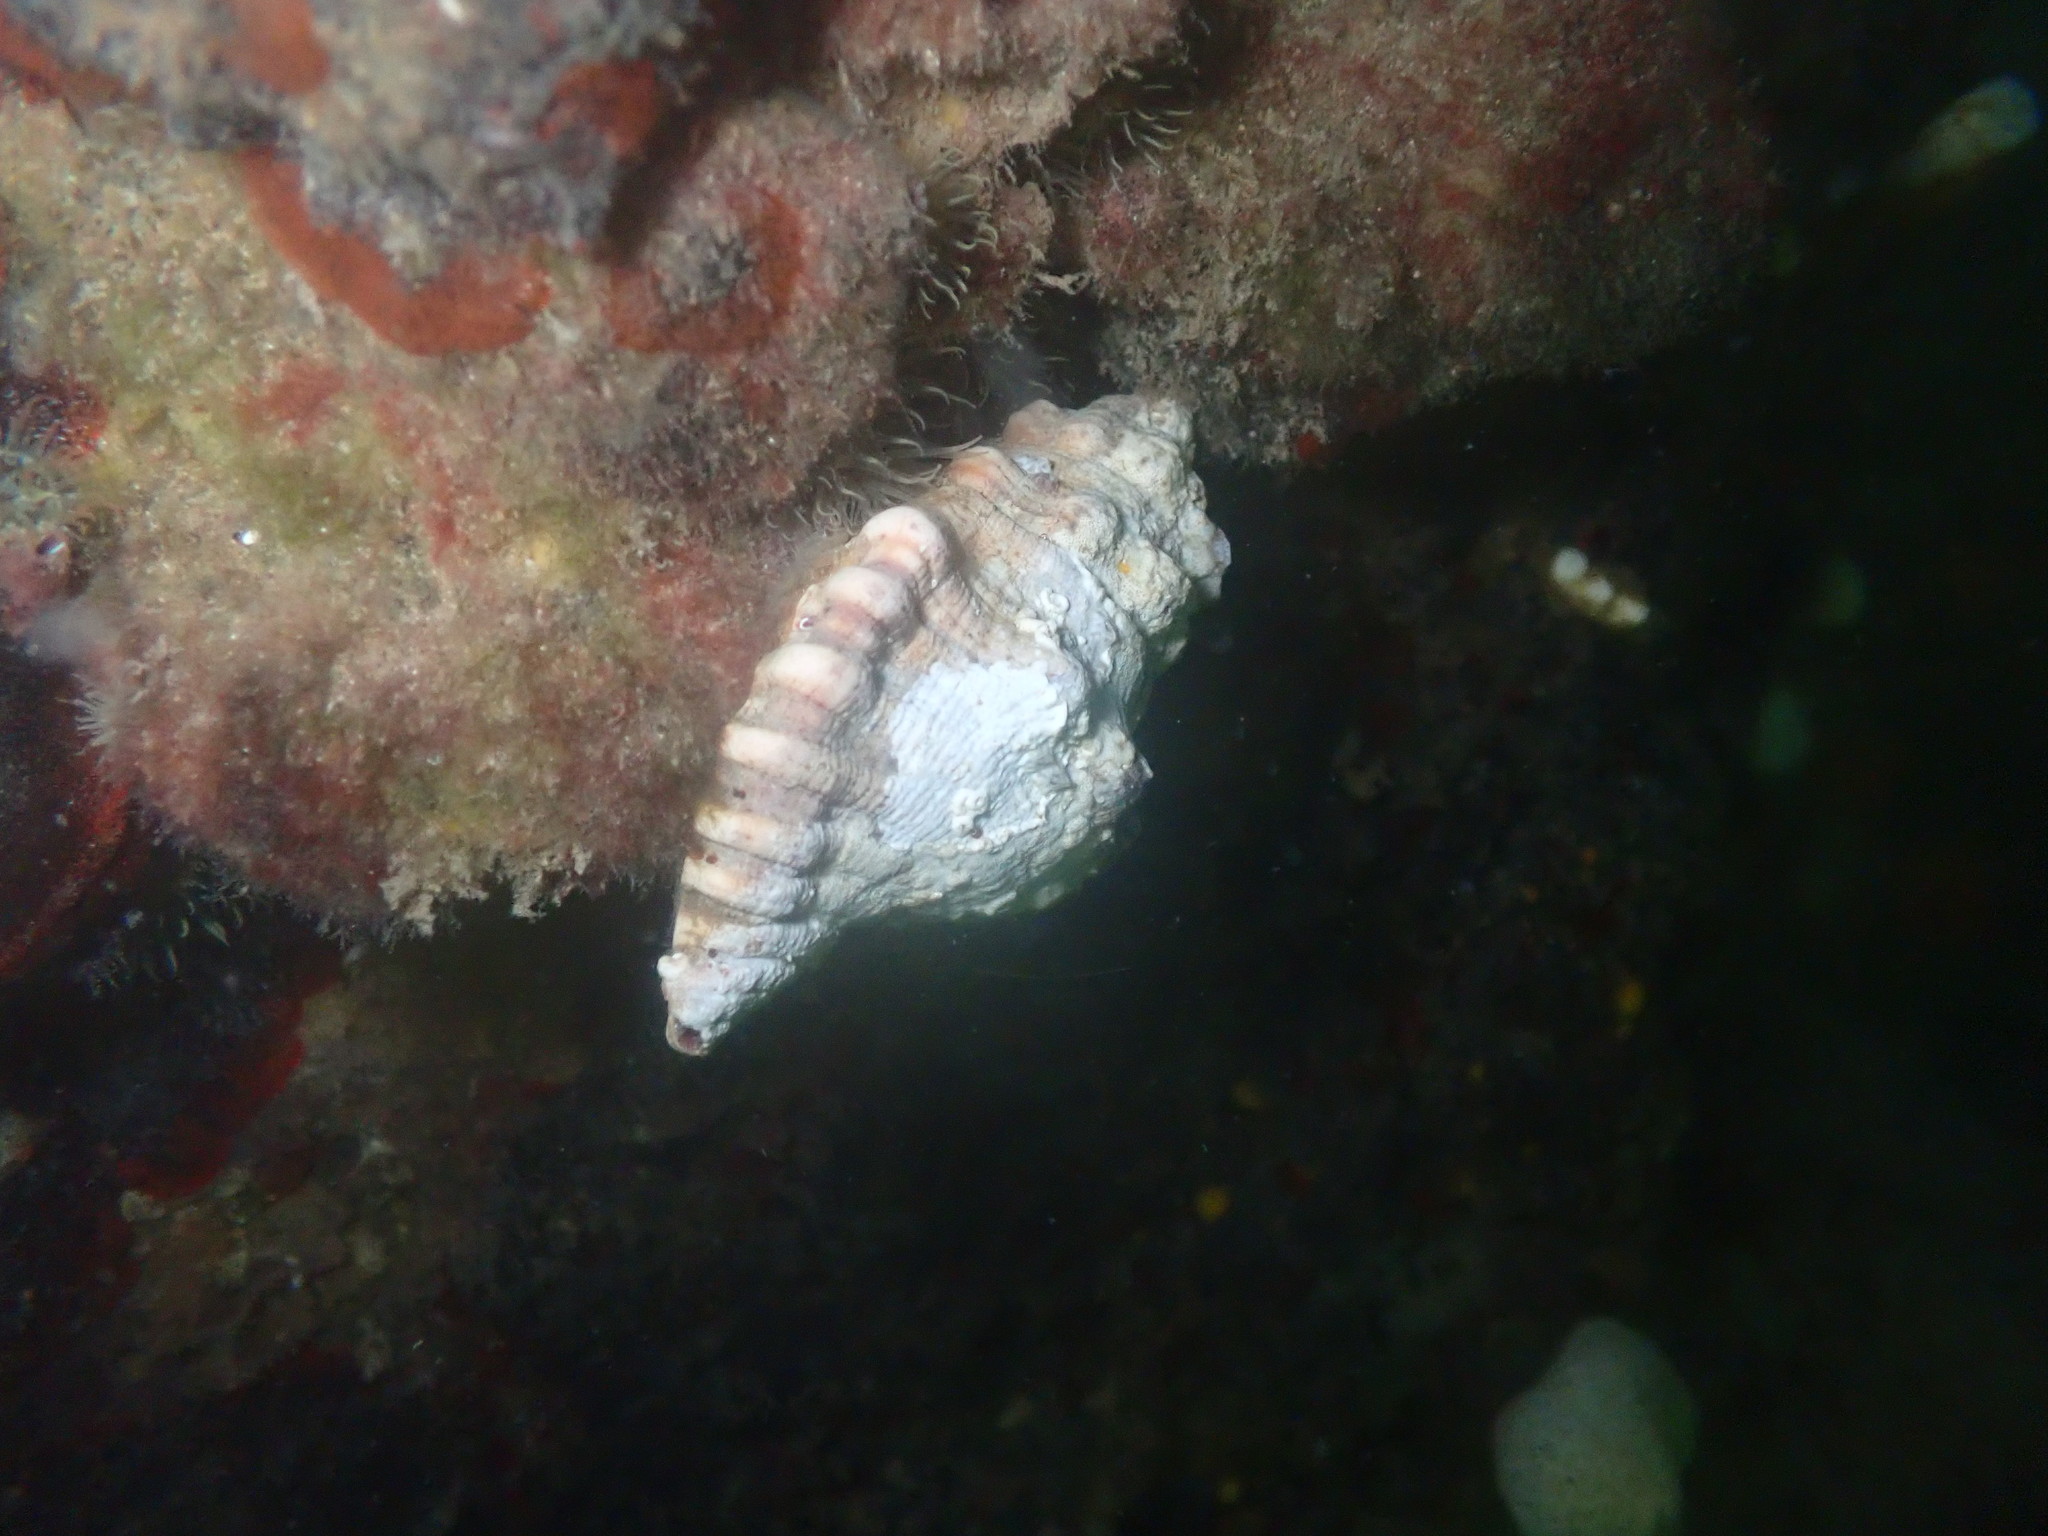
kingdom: Animalia
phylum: Mollusca
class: Gastropoda
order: Littorinimorpha
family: Cymatiidae
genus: Cabestana
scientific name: Cabestana spengleri
